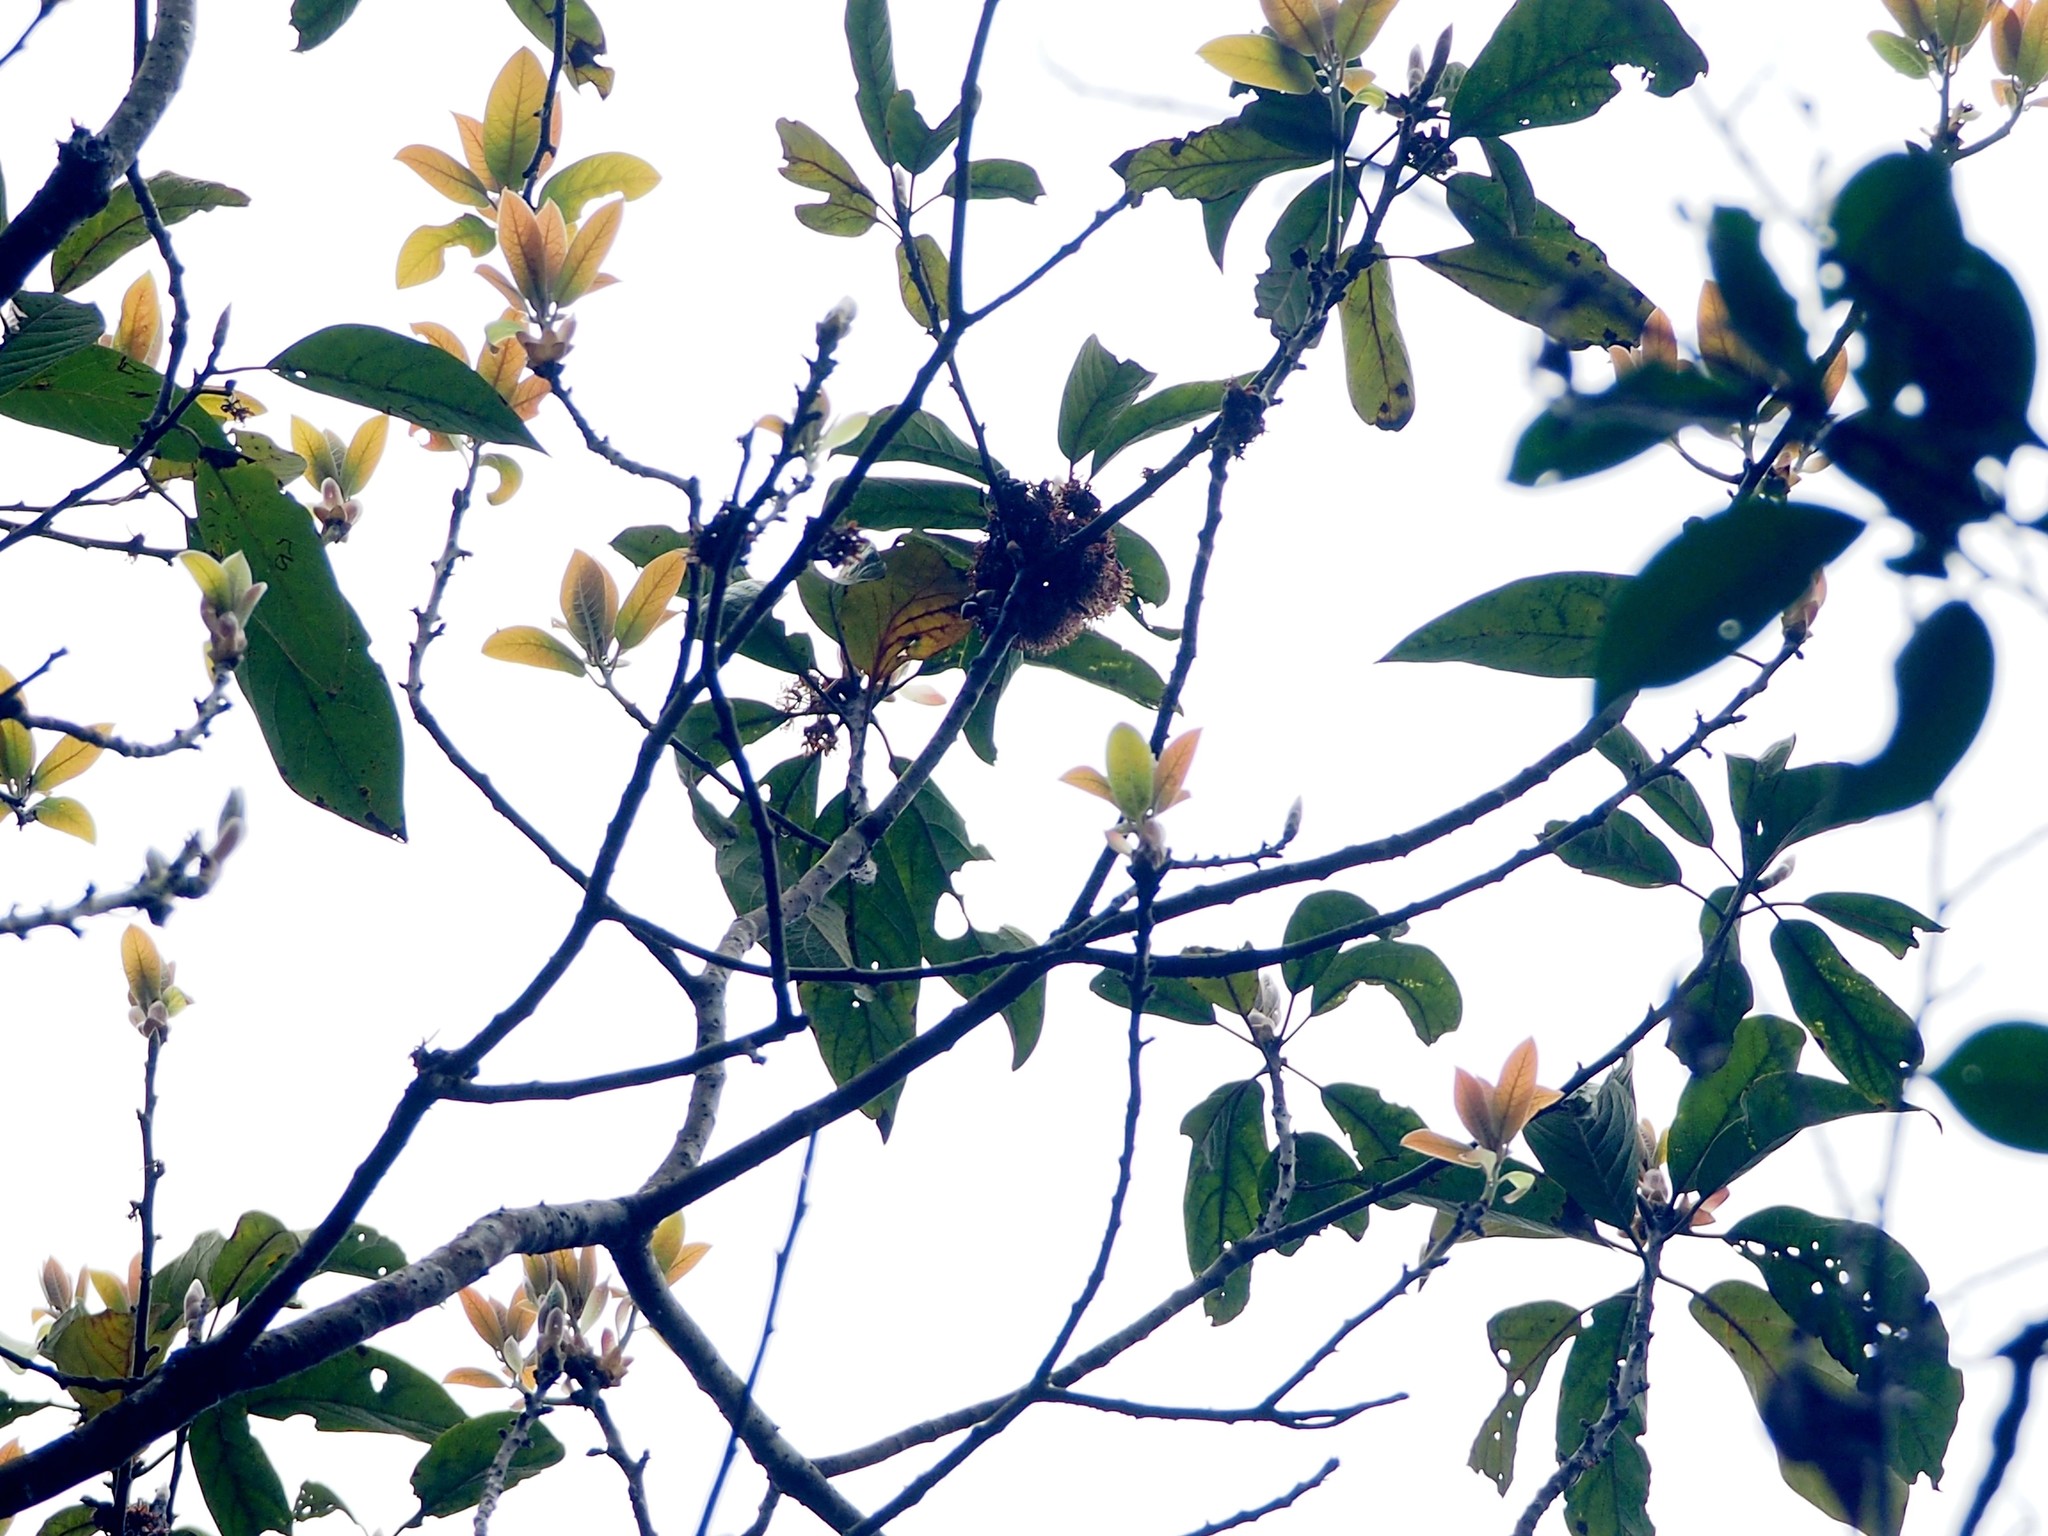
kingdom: Plantae
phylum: Tracheophyta
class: Magnoliopsida
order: Laurales
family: Lauraceae
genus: Lindera
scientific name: Lindera megaphylla
